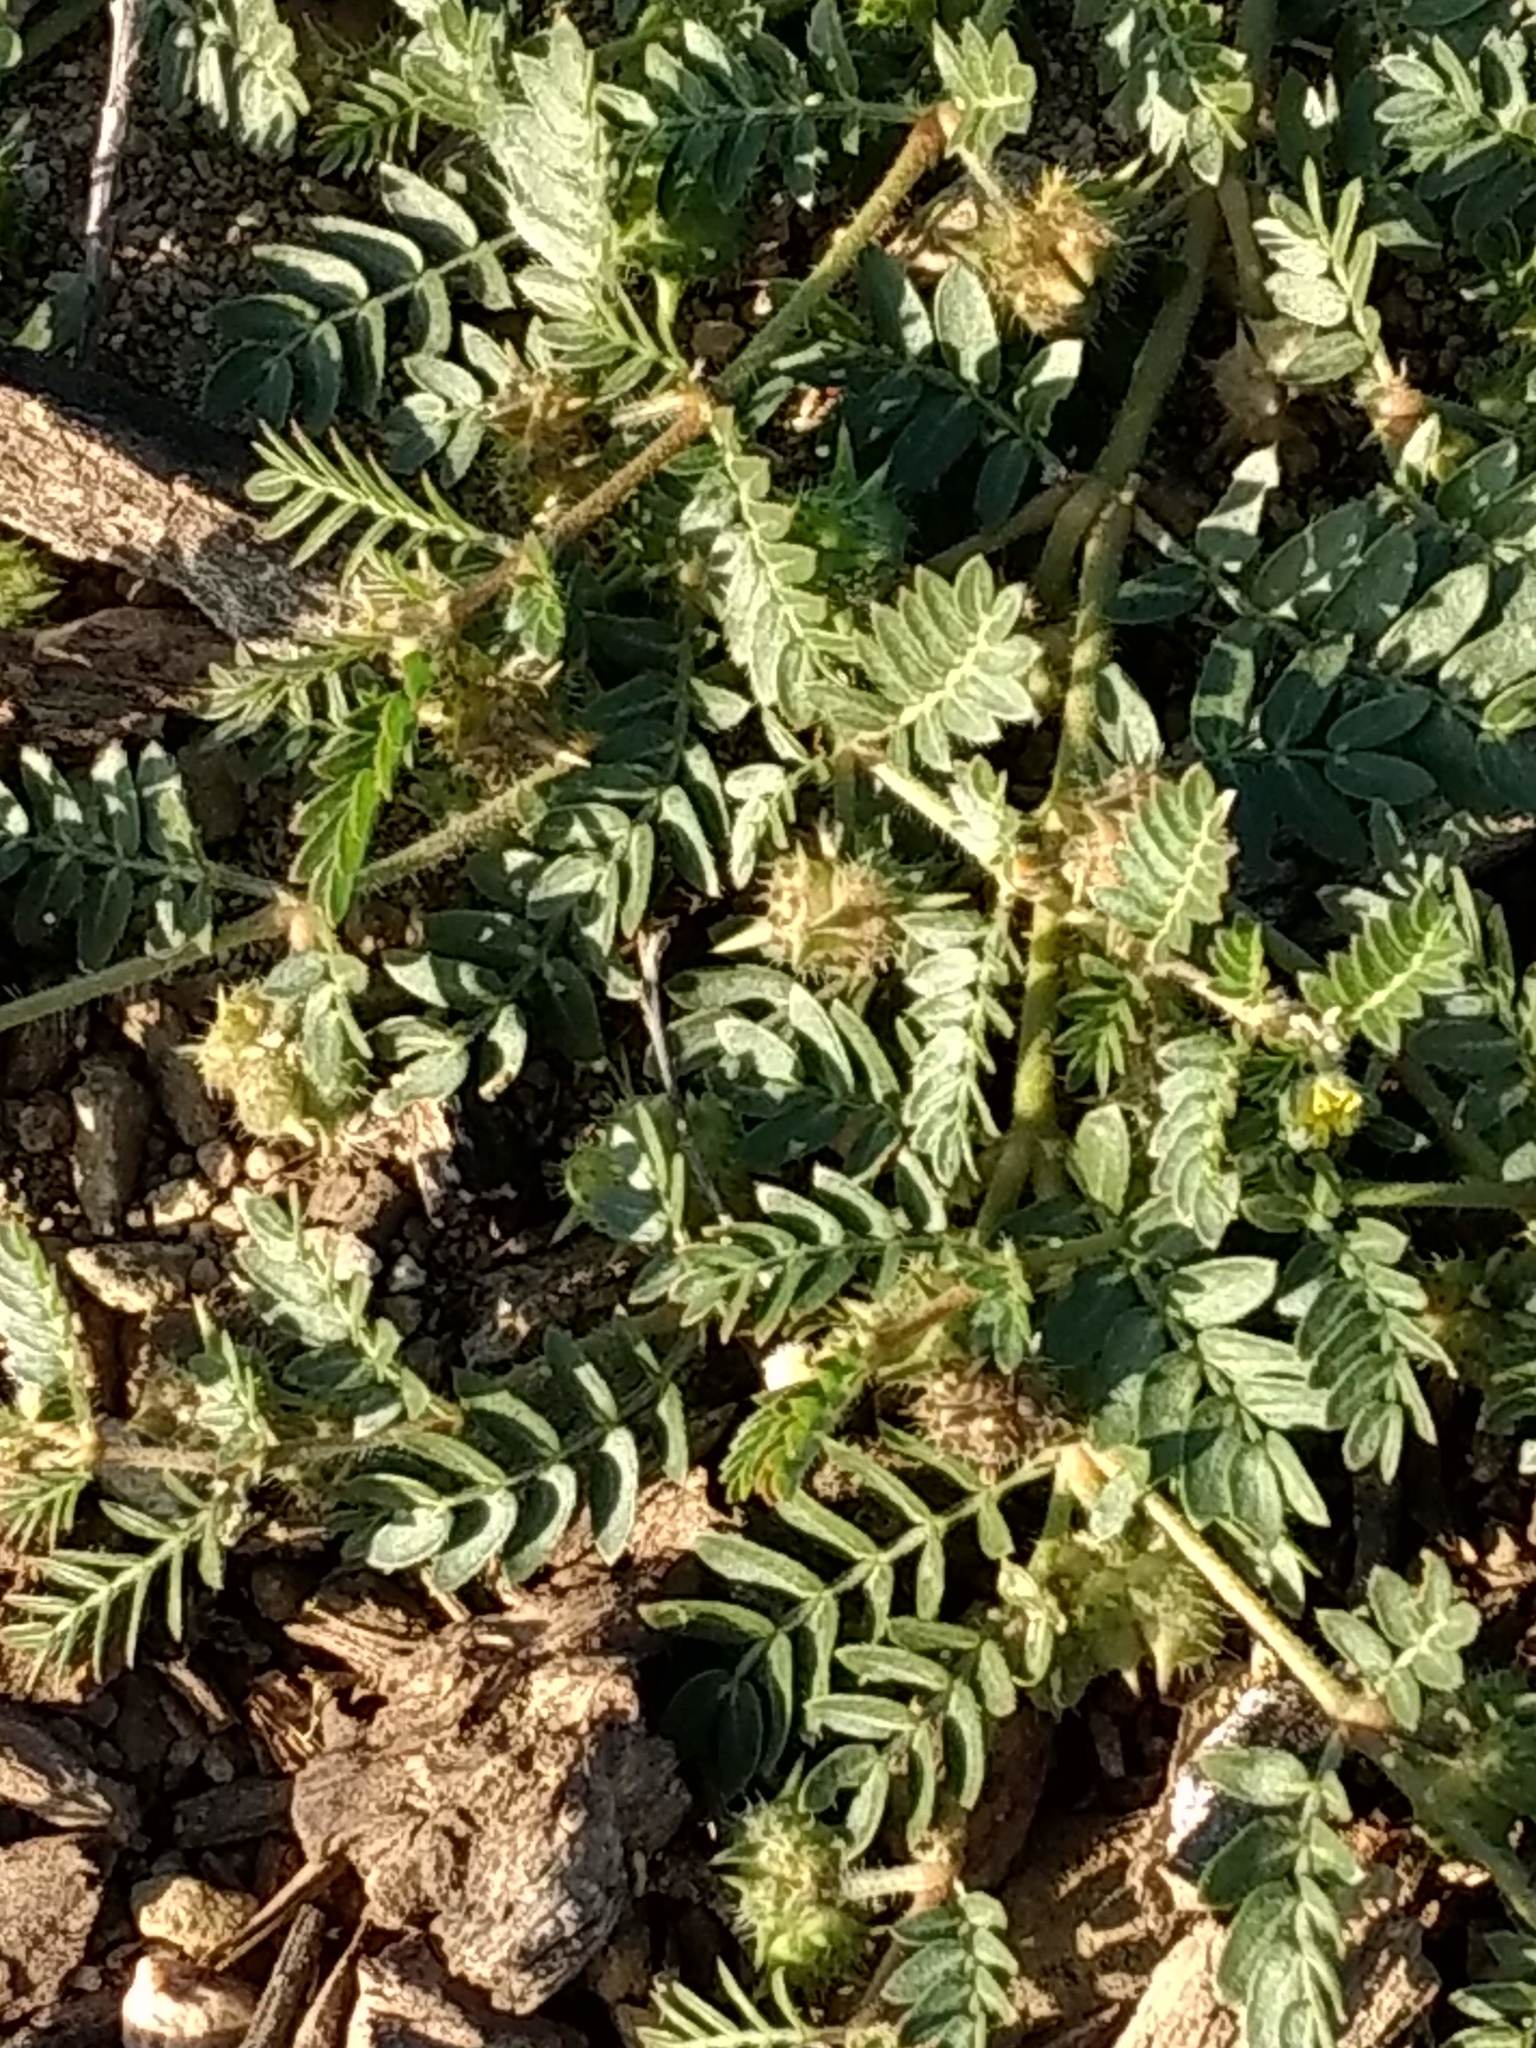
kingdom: Plantae
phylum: Tracheophyta
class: Magnoliopsida
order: Zygophyllales
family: Zygophyllaceae
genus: Tribulus
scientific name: Tribulus terrestris
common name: Puncturevine
